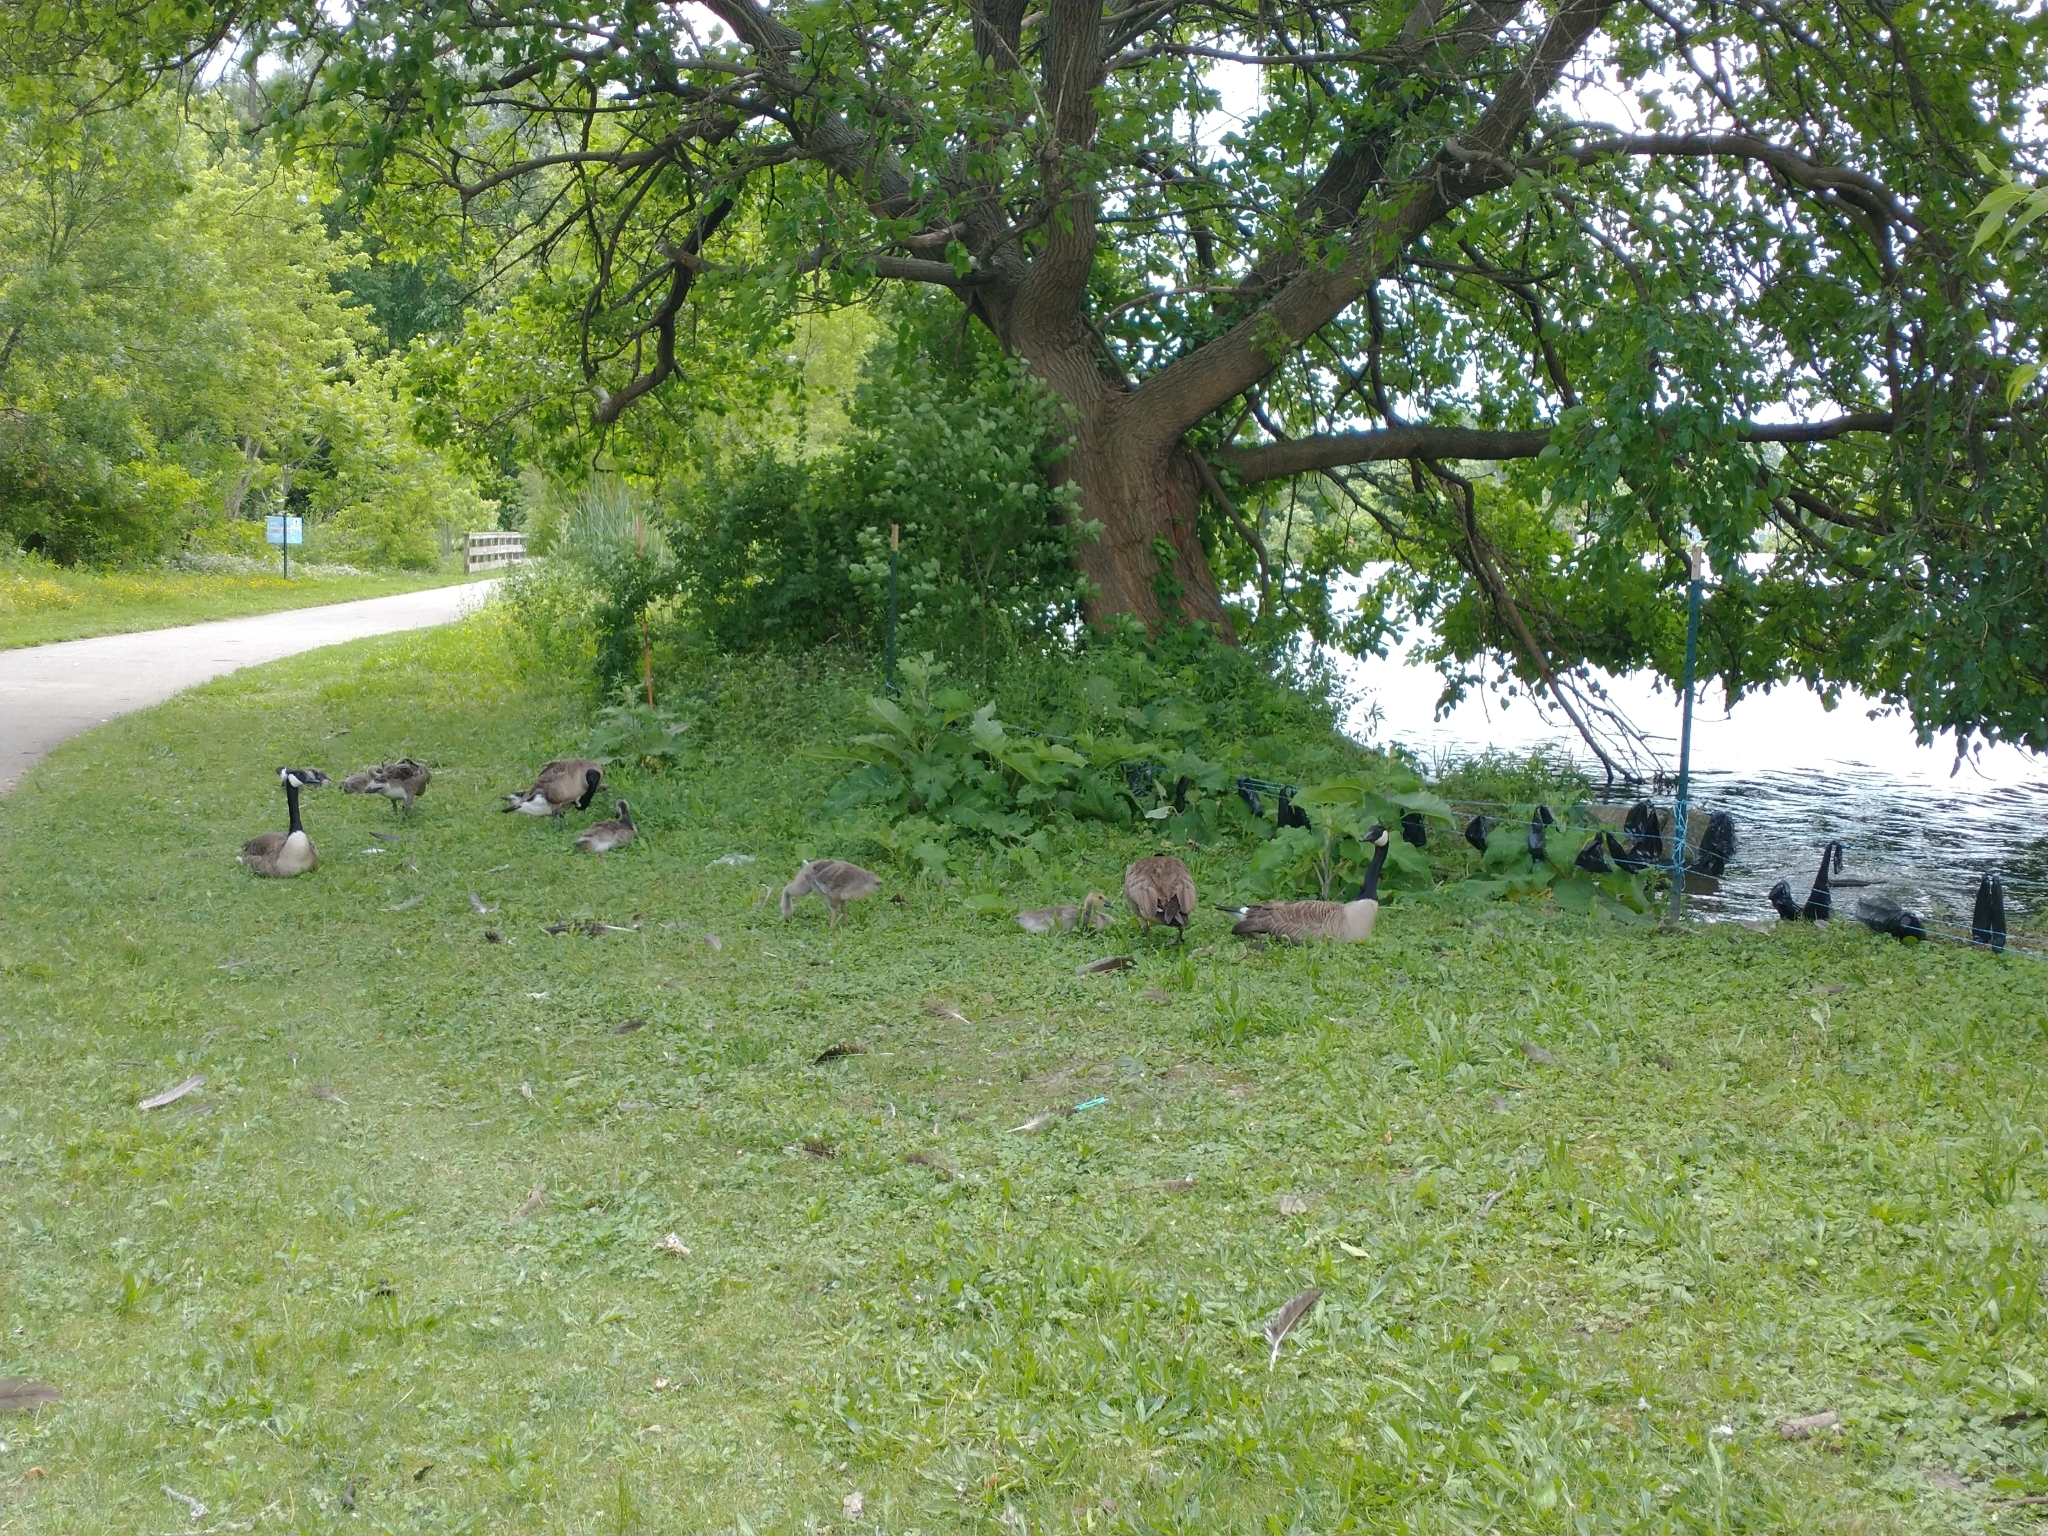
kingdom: Animalia
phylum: Chordata
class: Aves
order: Anseriformes
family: Anatidae
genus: Branta
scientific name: Branta canadensis
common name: Canada goose
